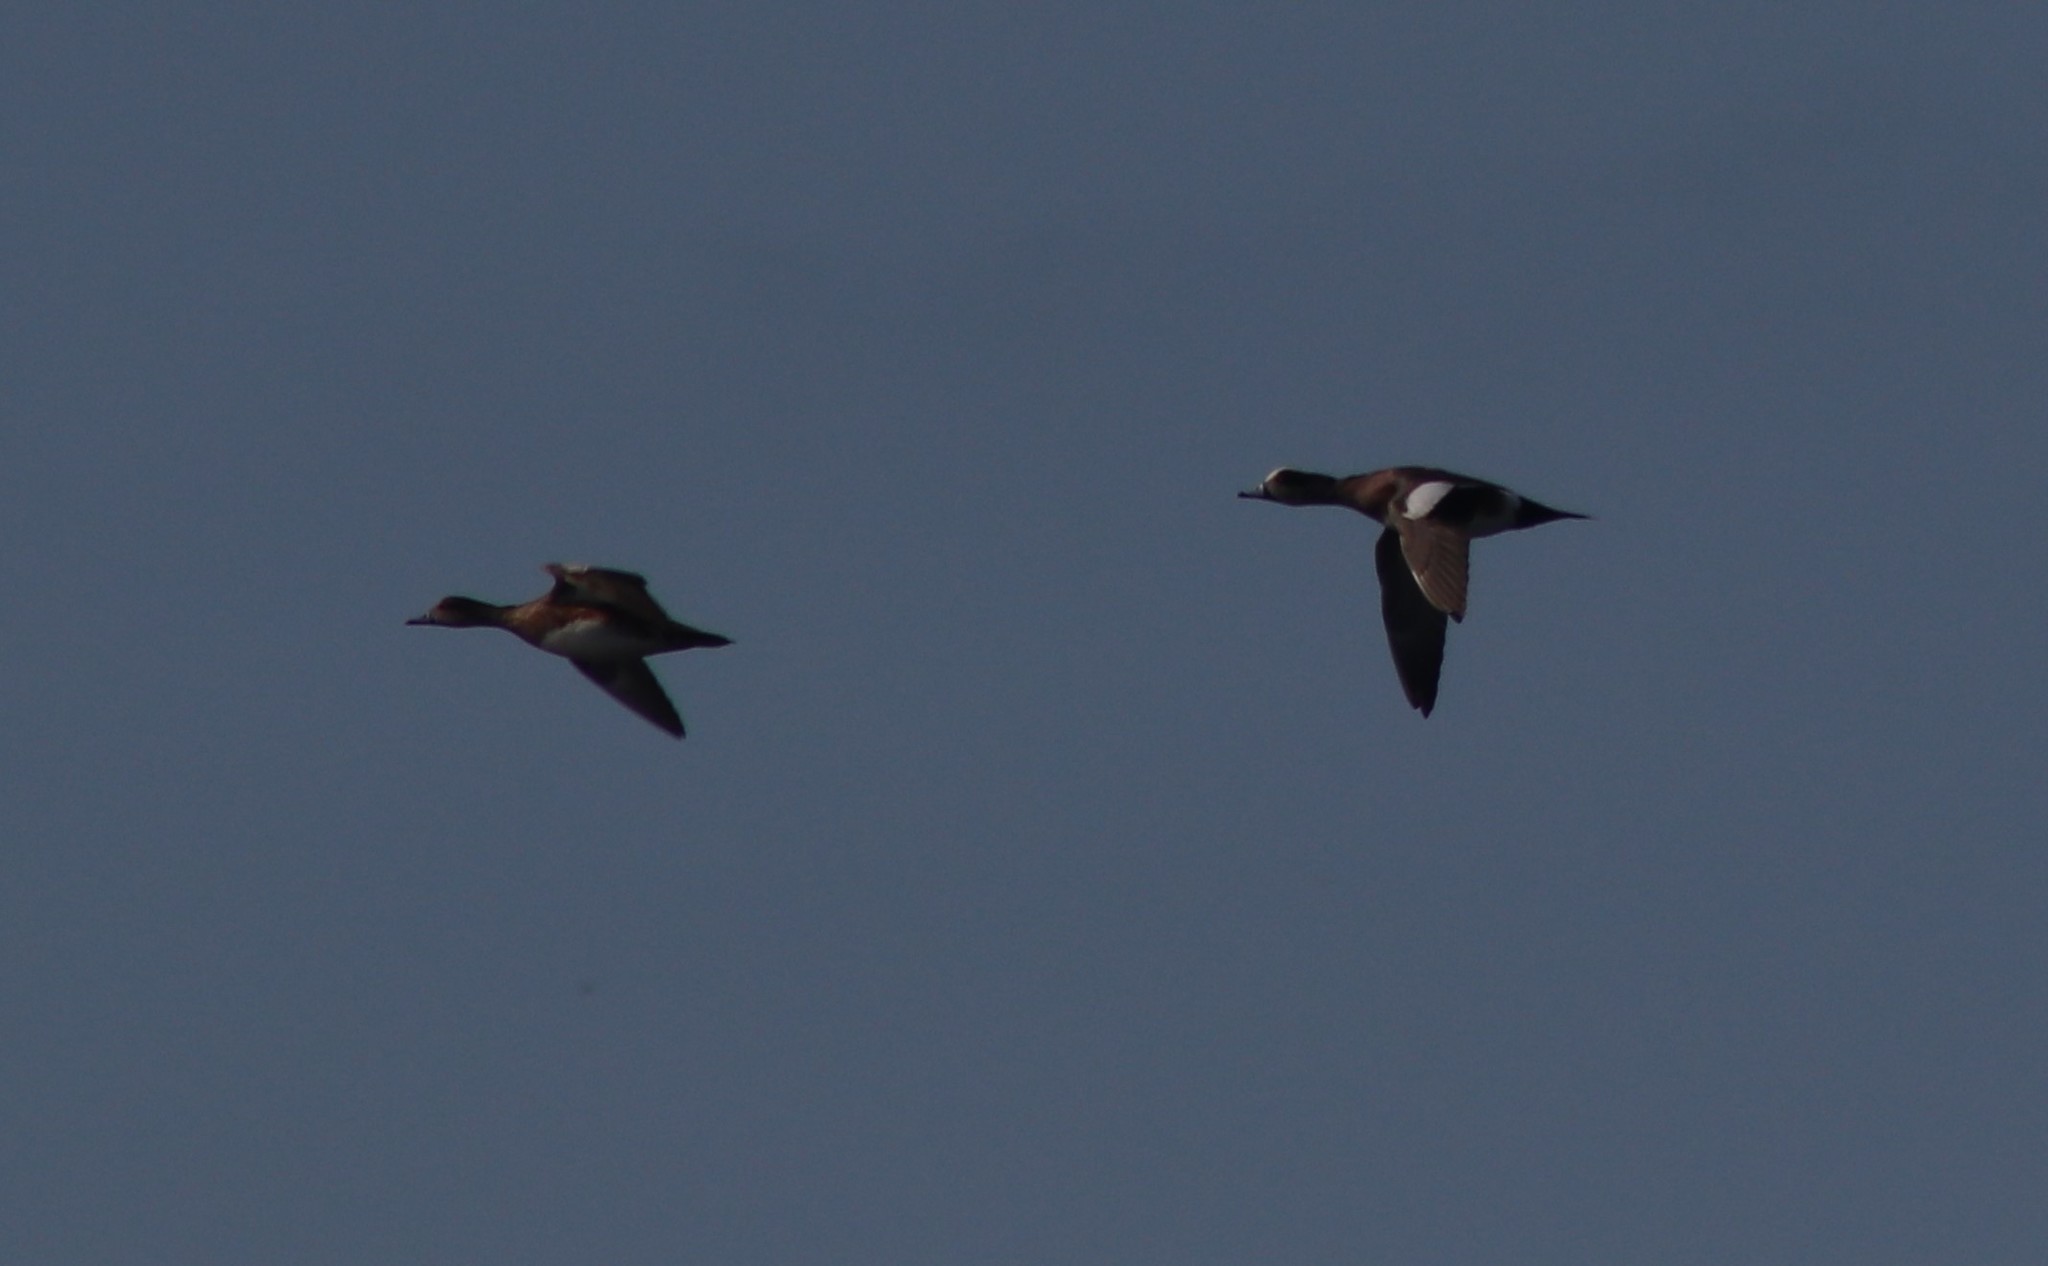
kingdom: Animalia
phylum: Chordata
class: Aves
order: Anseriformes
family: Anatidae
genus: Mareca
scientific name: Mareca americana
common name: American wigeon
